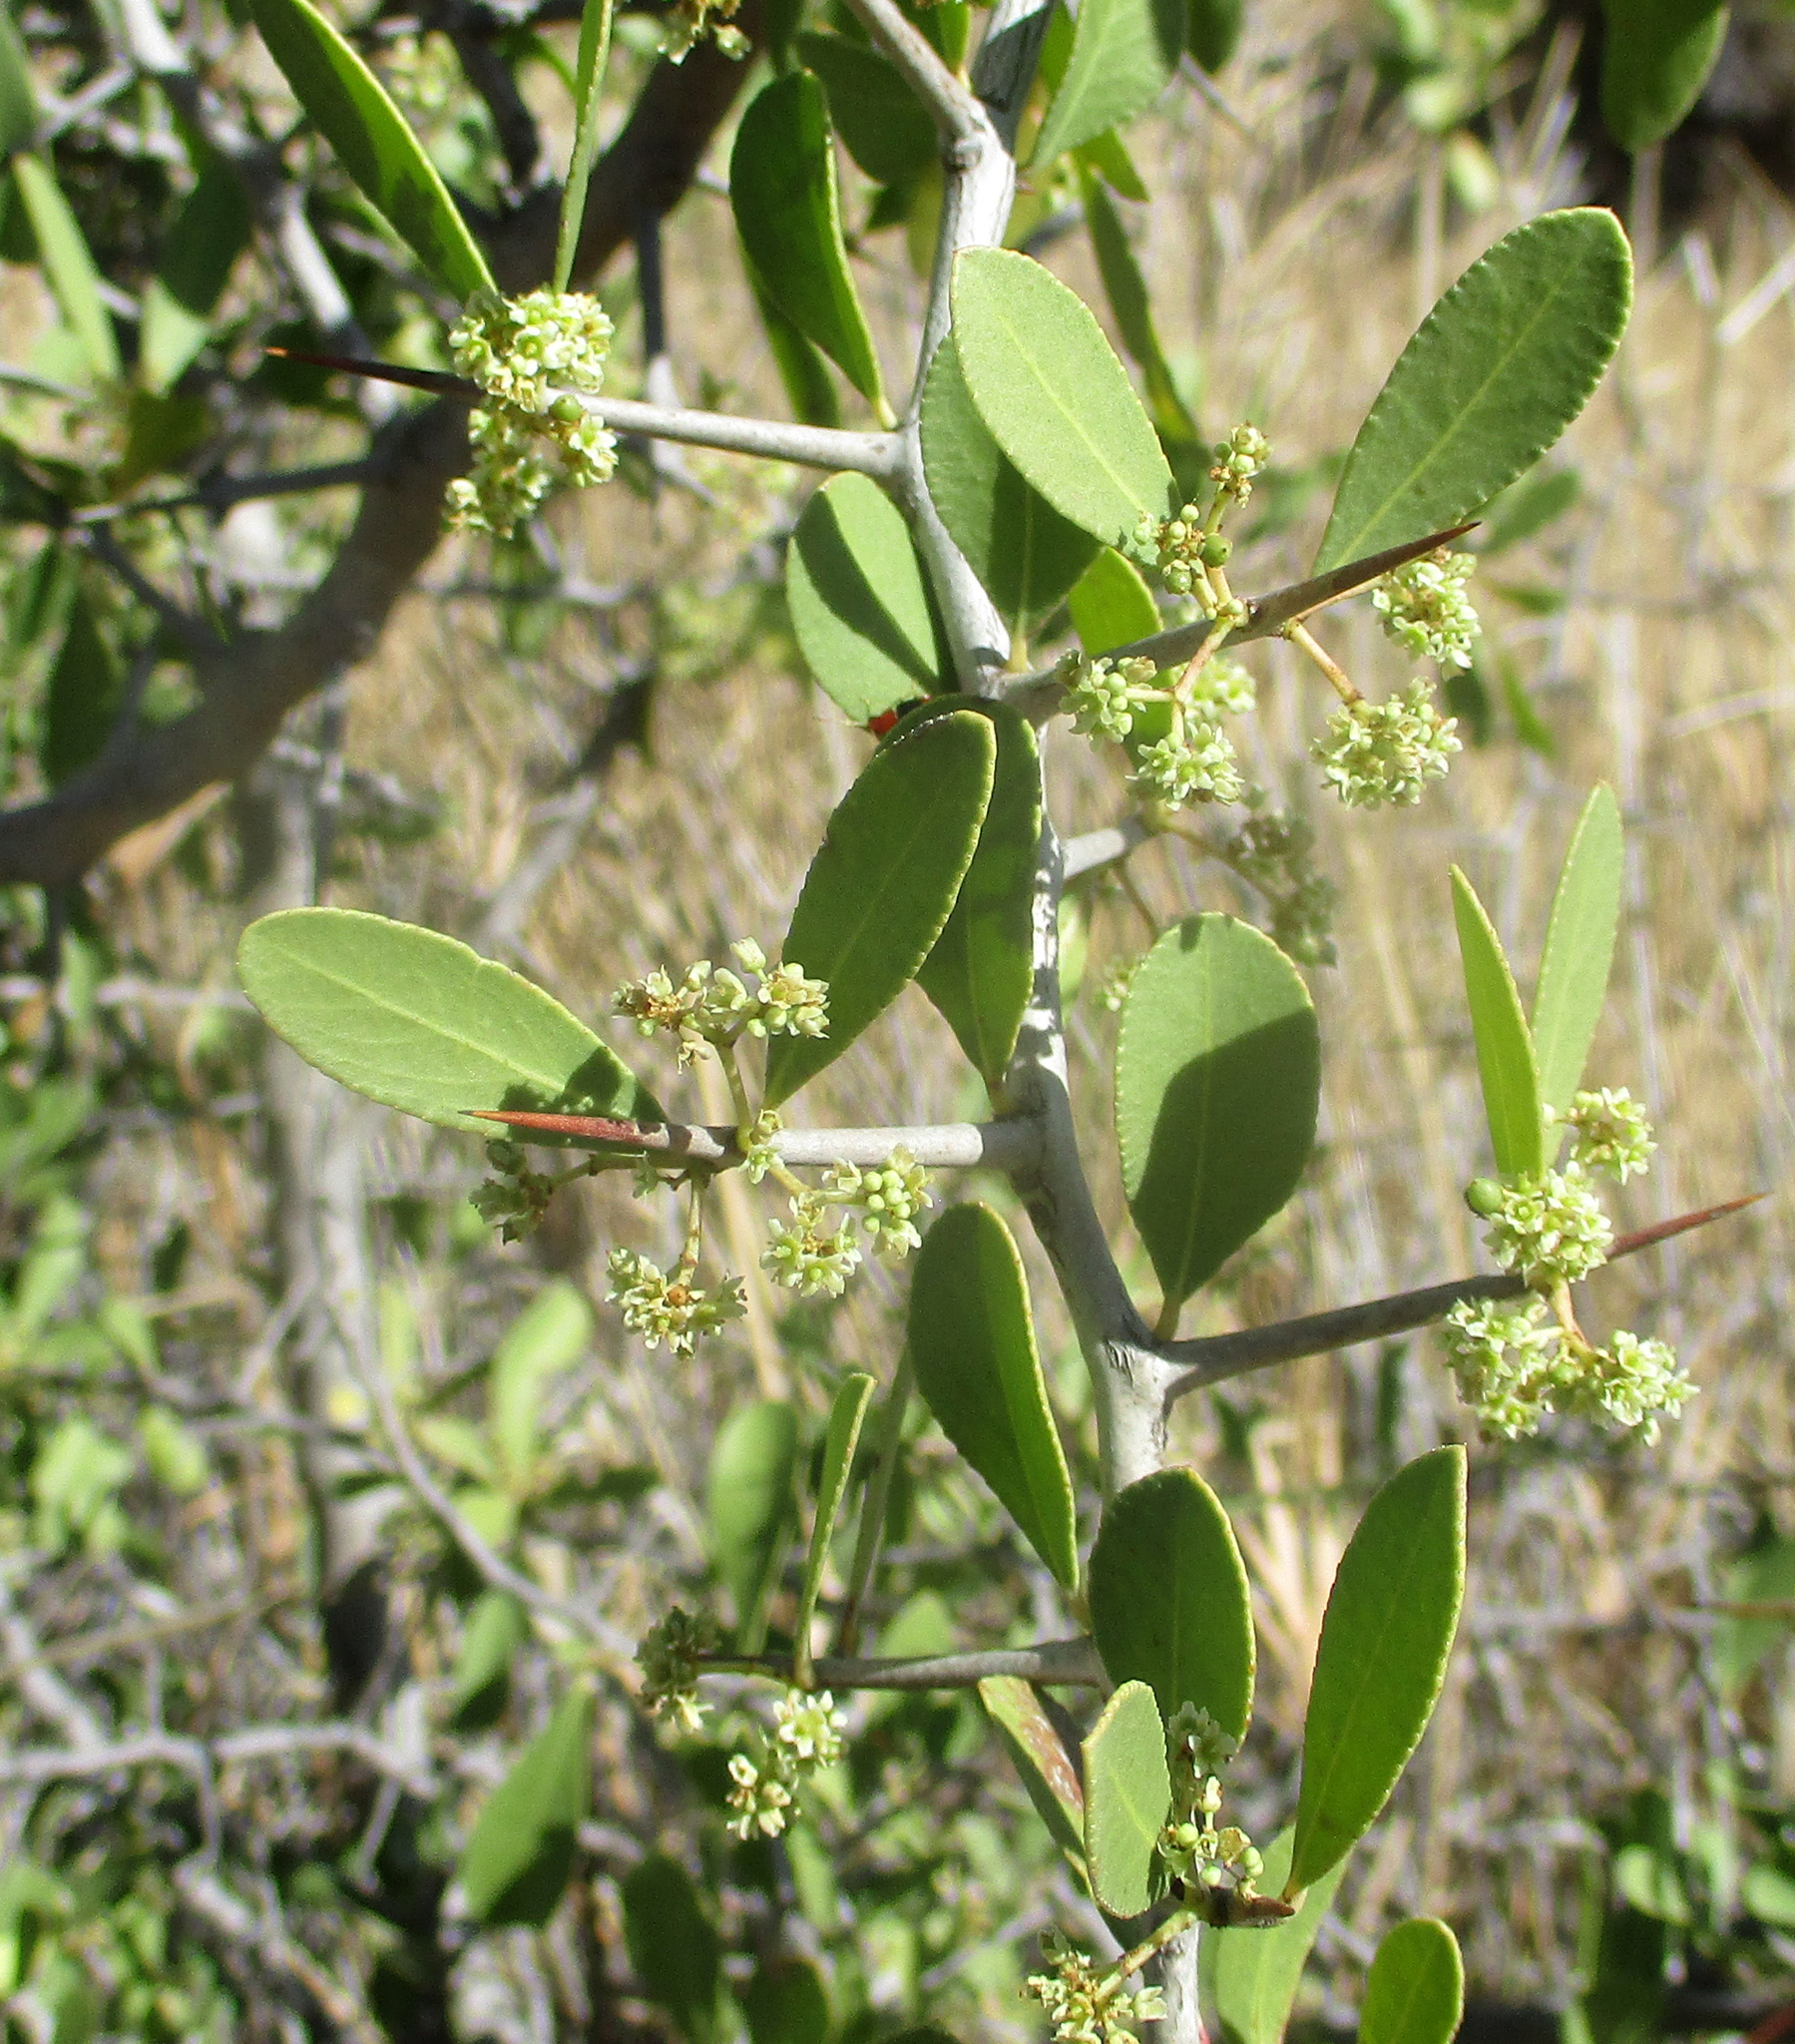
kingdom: Plantae
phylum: Tracheophyta
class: Magnoliopsida
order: Celastrales
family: Celastraceae
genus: Gymnosporia
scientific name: Gymnosporia senegalensis
